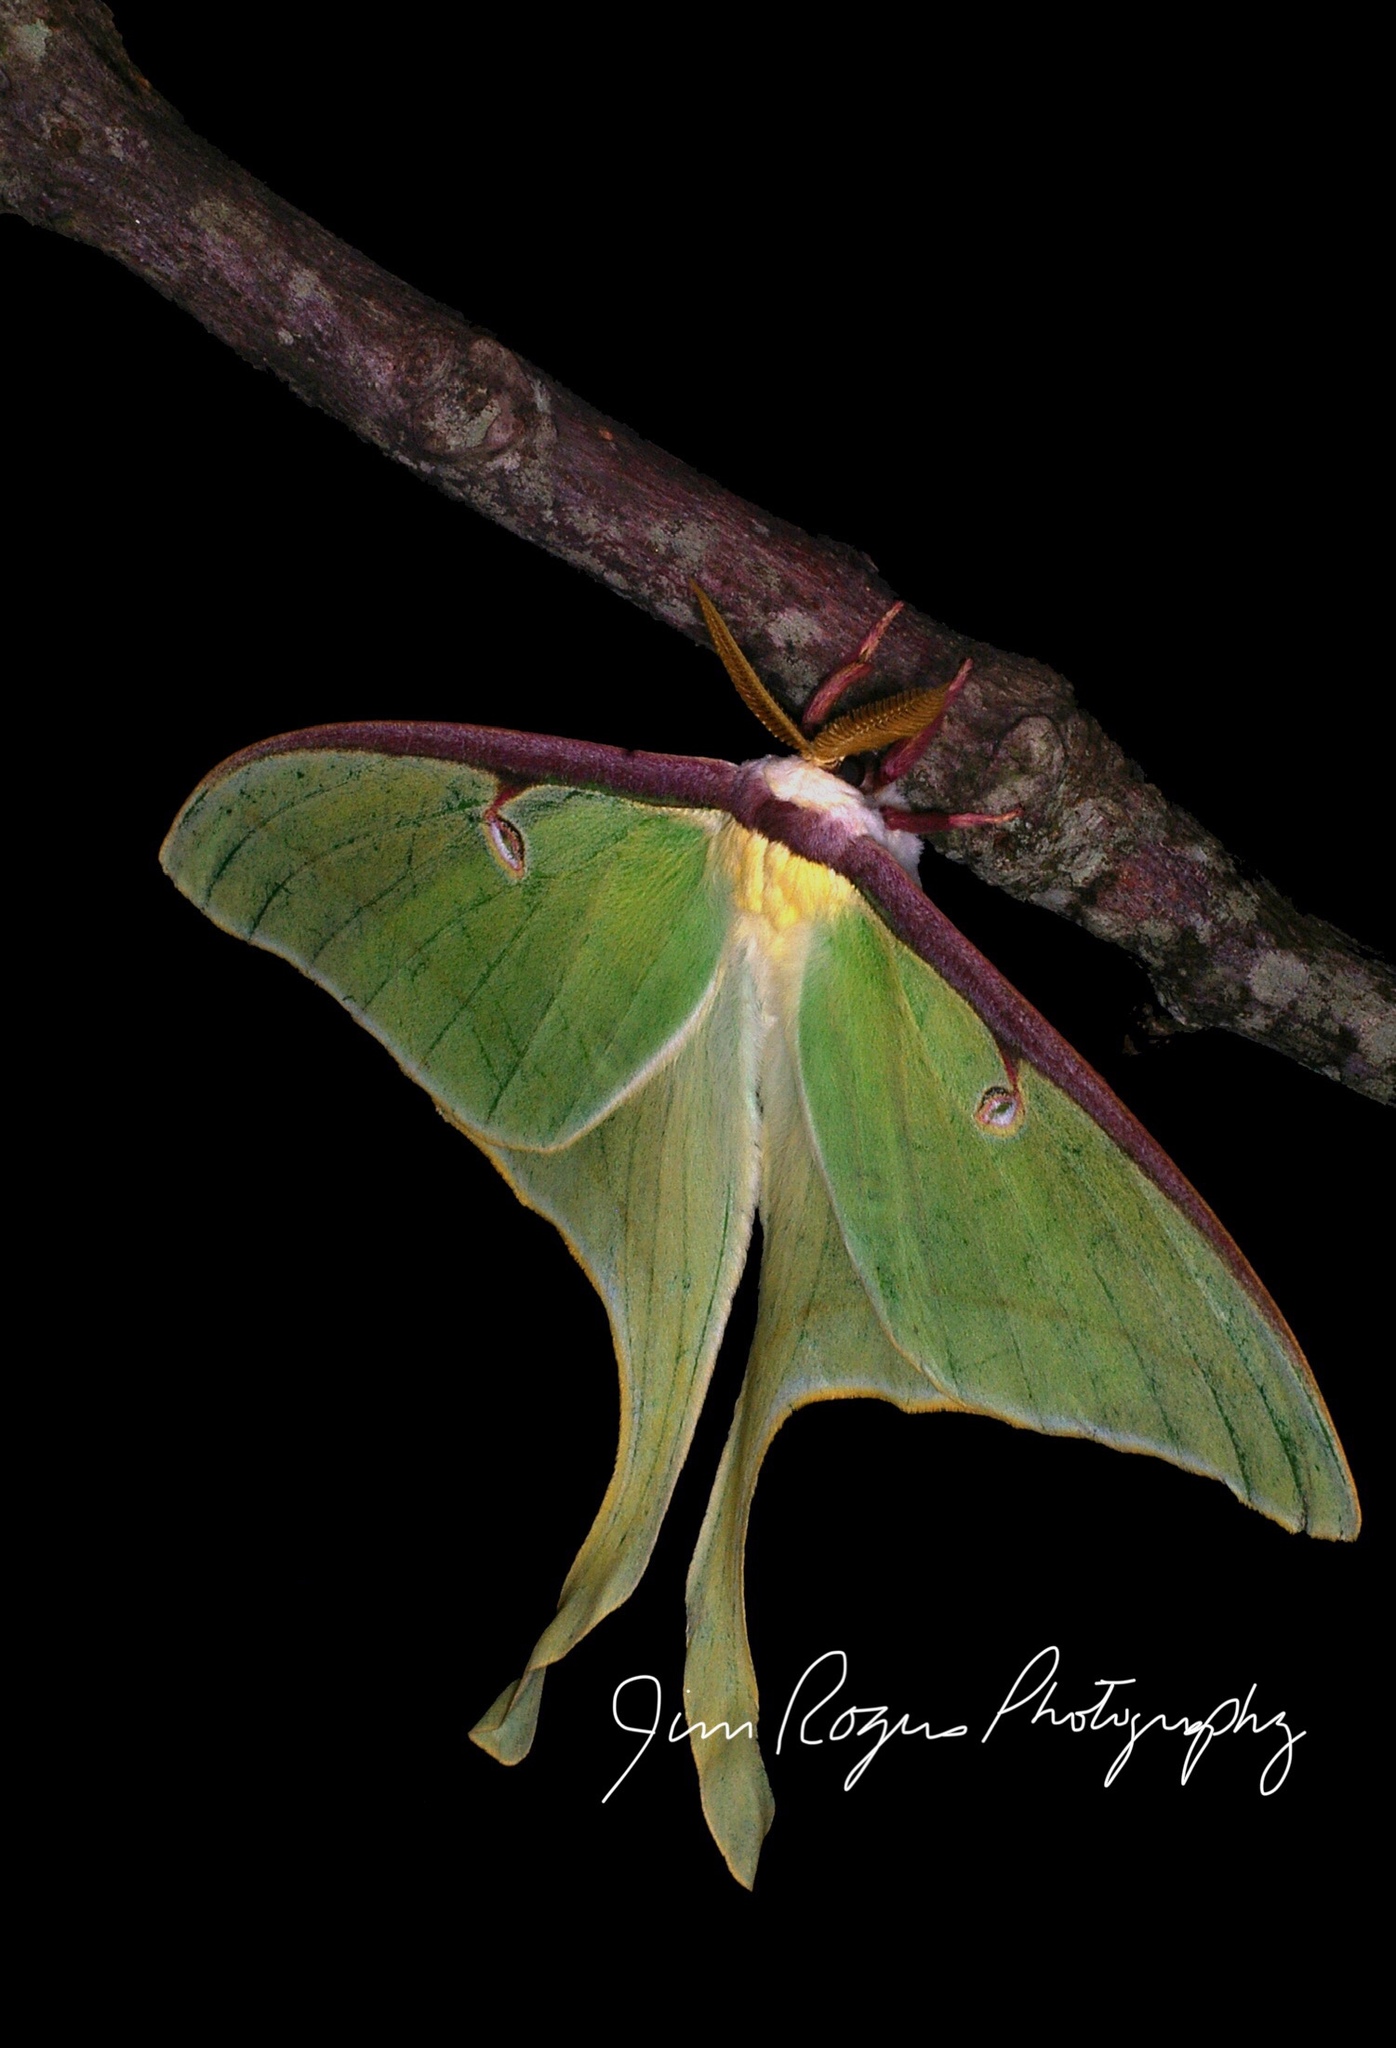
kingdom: Animalia
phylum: Arthropoda
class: Insecta
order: Lepidoptera
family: Saturniidae
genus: Actias
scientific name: Actias luna
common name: Luna moth
